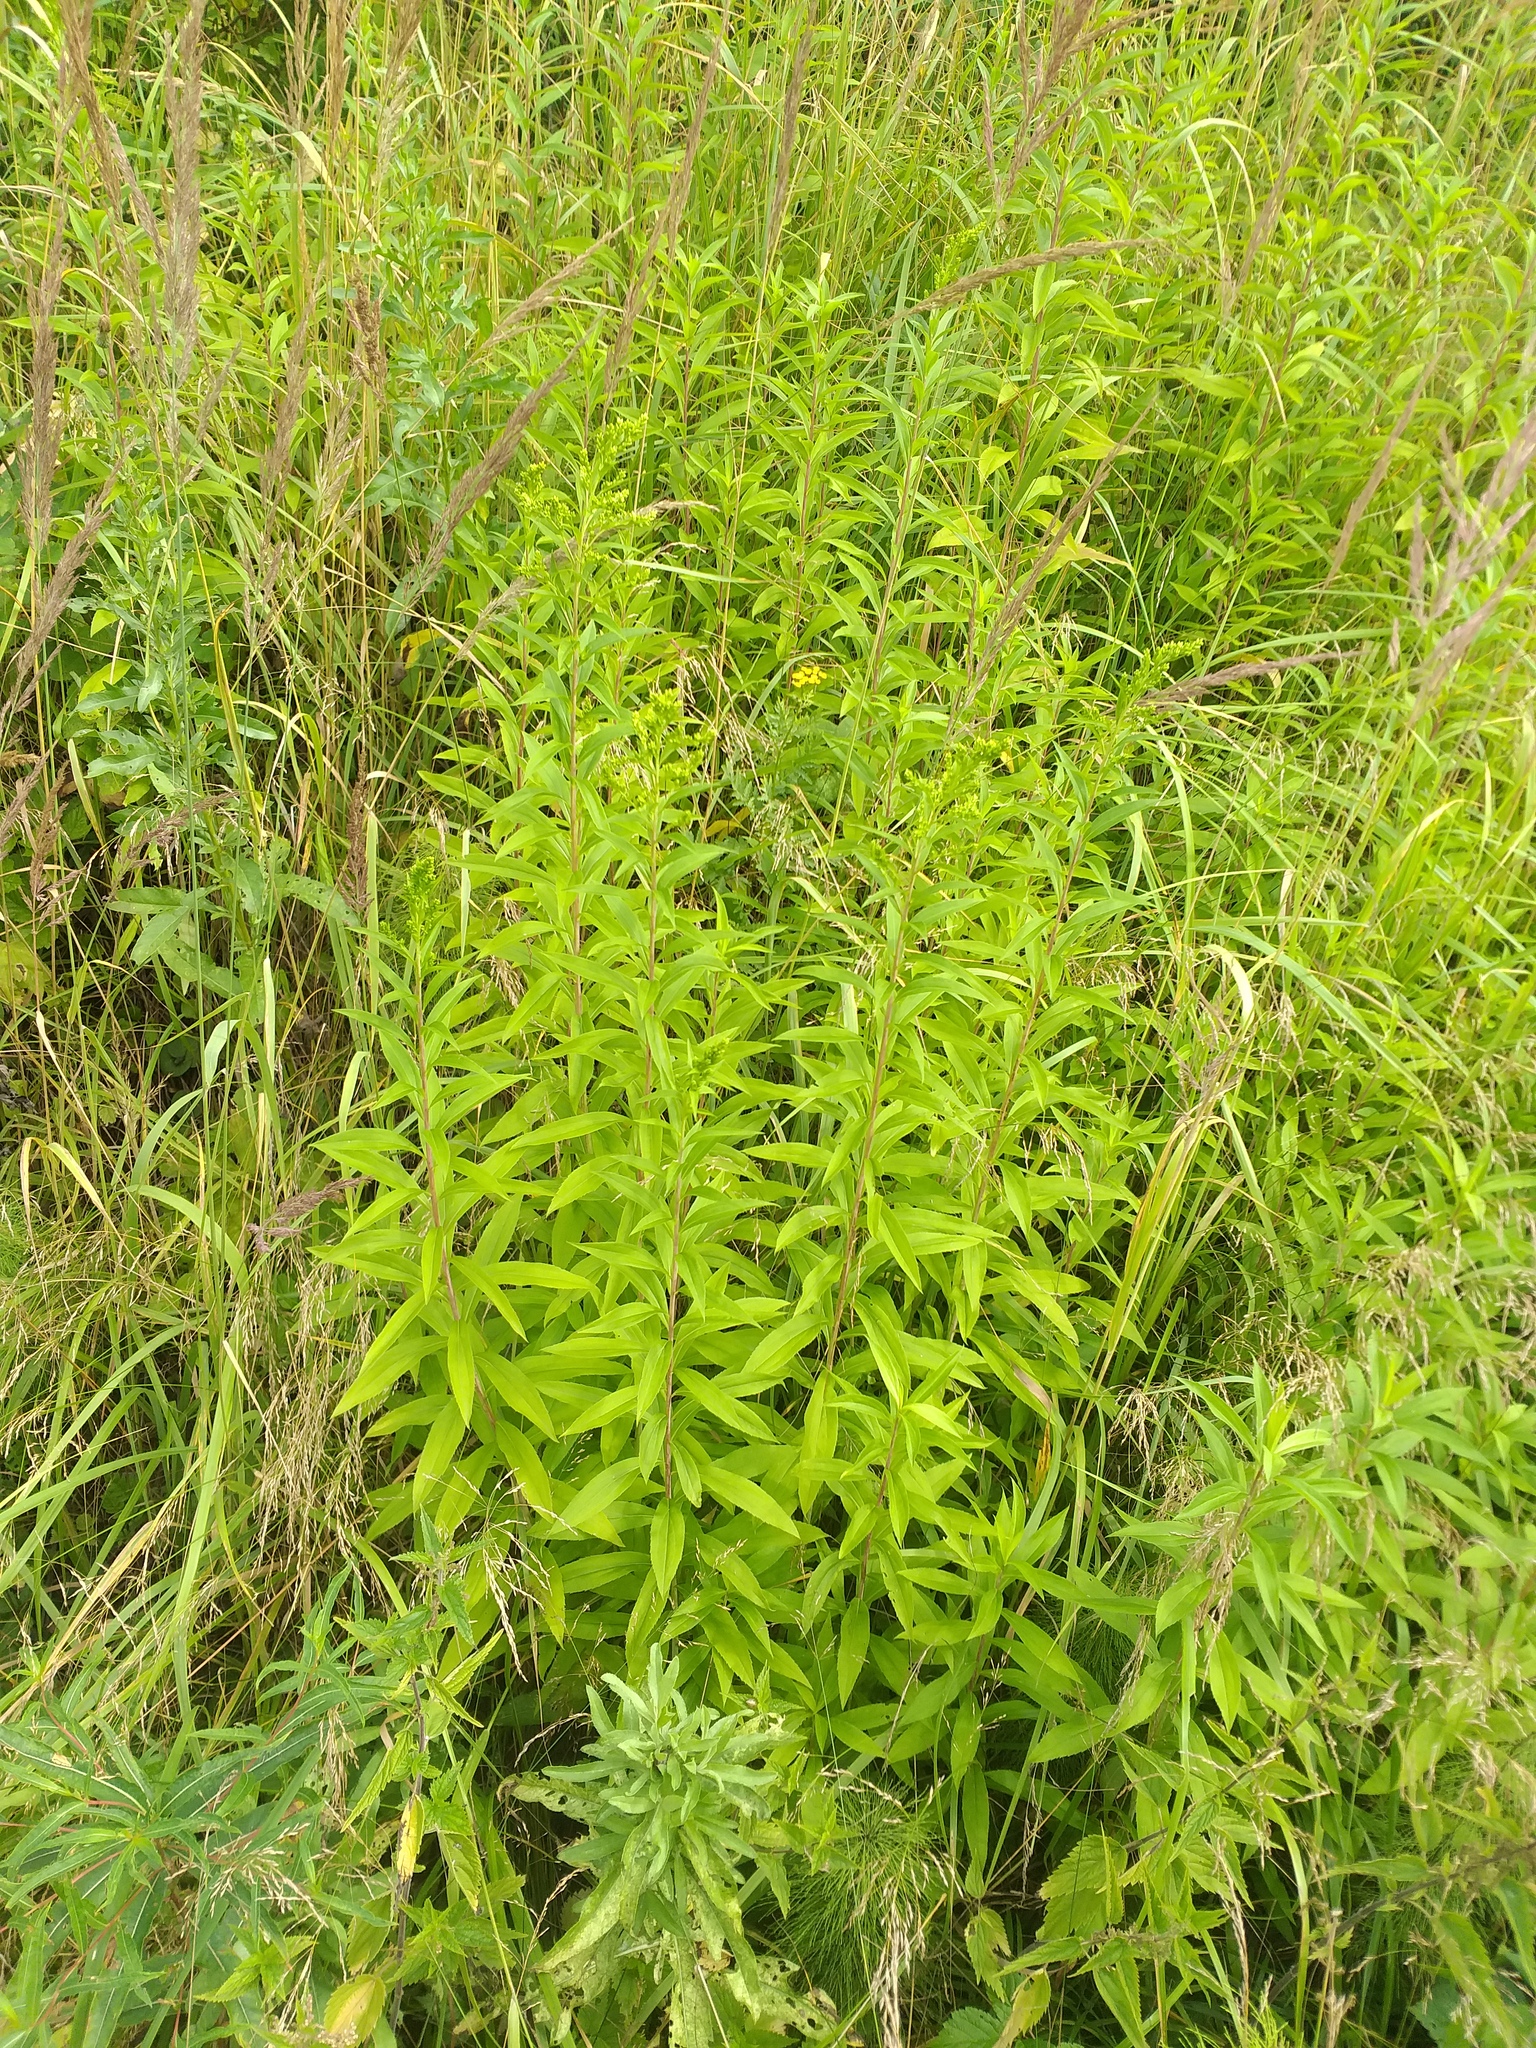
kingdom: Plantae
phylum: Tracheophyta
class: Magnoliopsida
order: Asterales
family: Asteraceae
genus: Solidago
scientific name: Solidago gigantea
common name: Giant goldenrod
